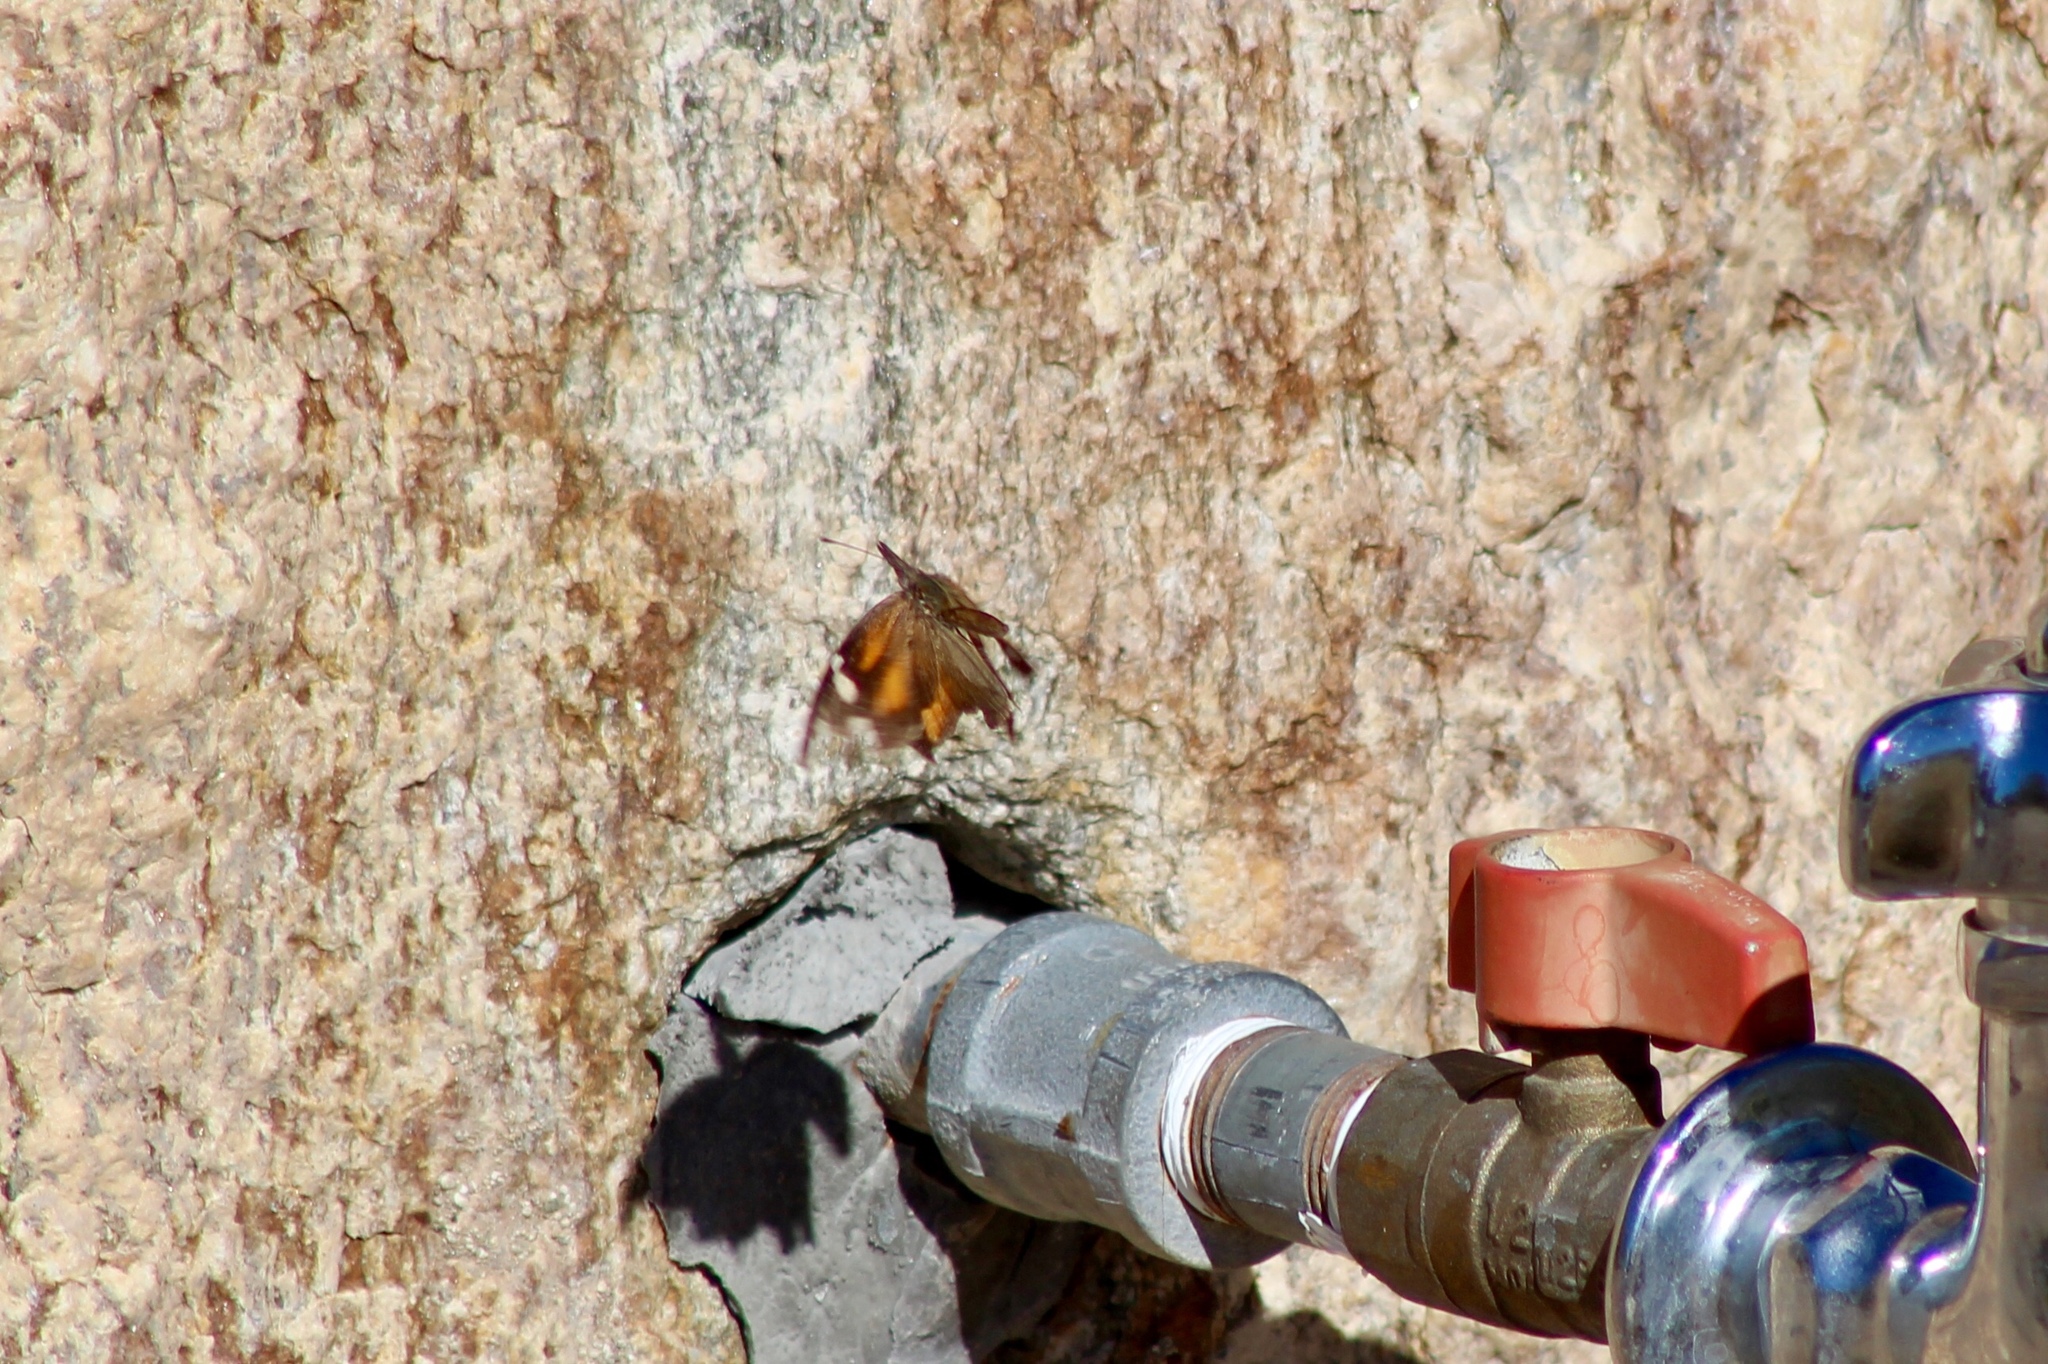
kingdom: Animalia
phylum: Arthropoda
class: Insecta
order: Lepidoptera
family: Nymphalidae
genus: Libytheana
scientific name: Libytheana carinenta
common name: American snout
